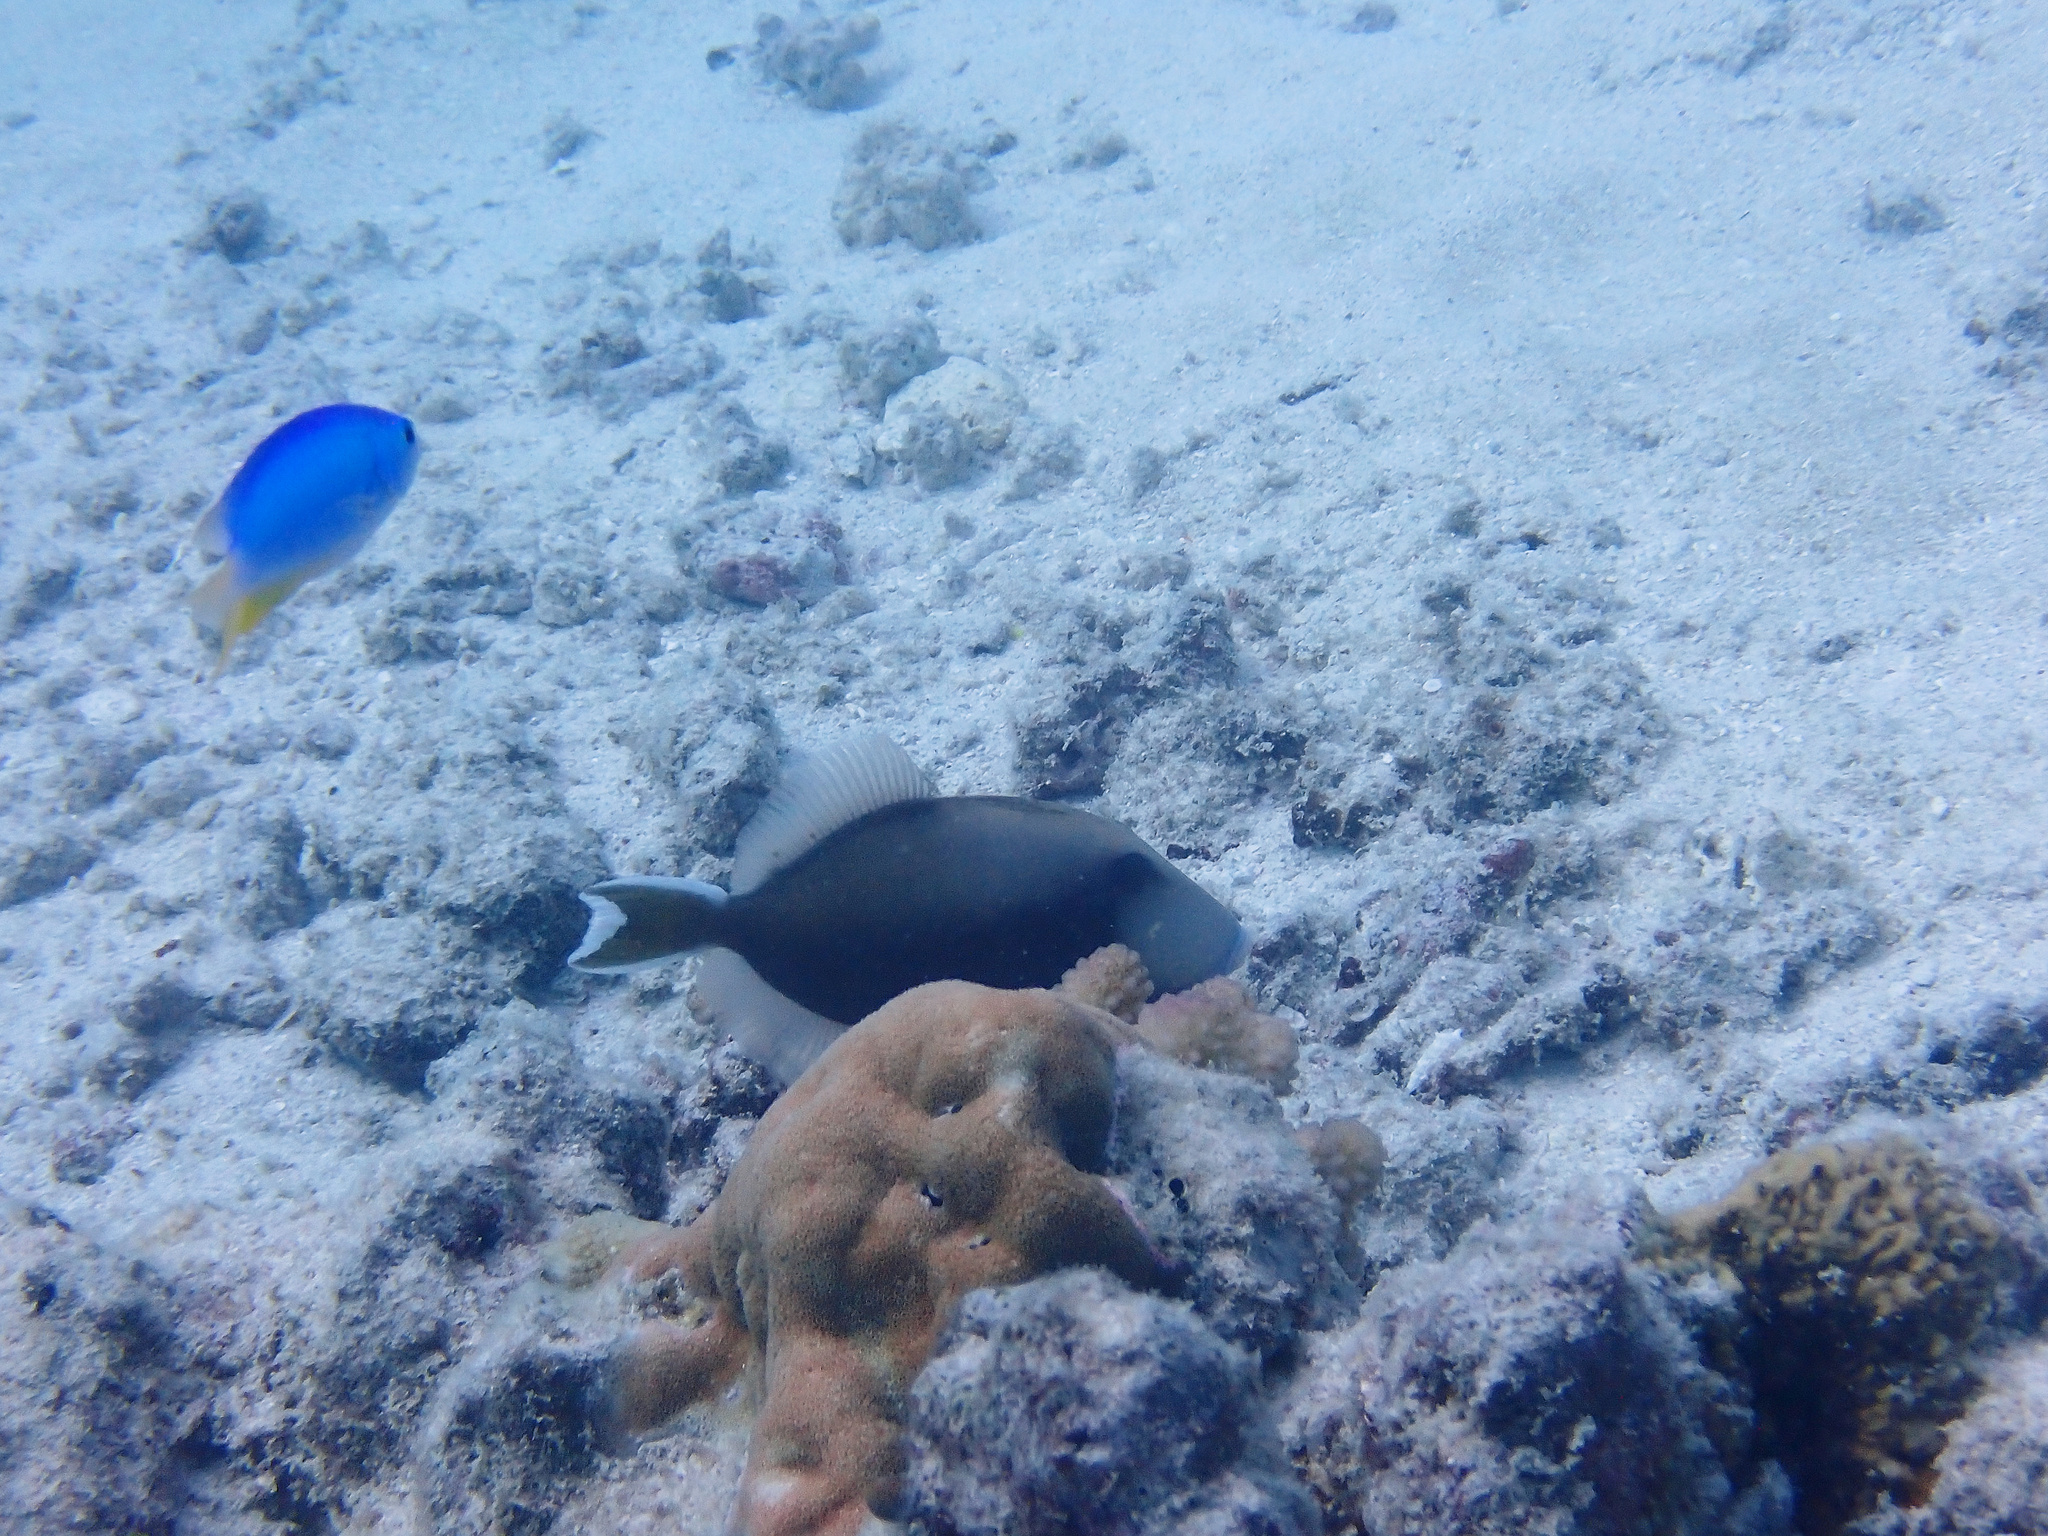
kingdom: Animalia
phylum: Chordata
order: Tetraodontiformes
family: Balistidae
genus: Sufflamen
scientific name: Sufflamen chrysopterum
